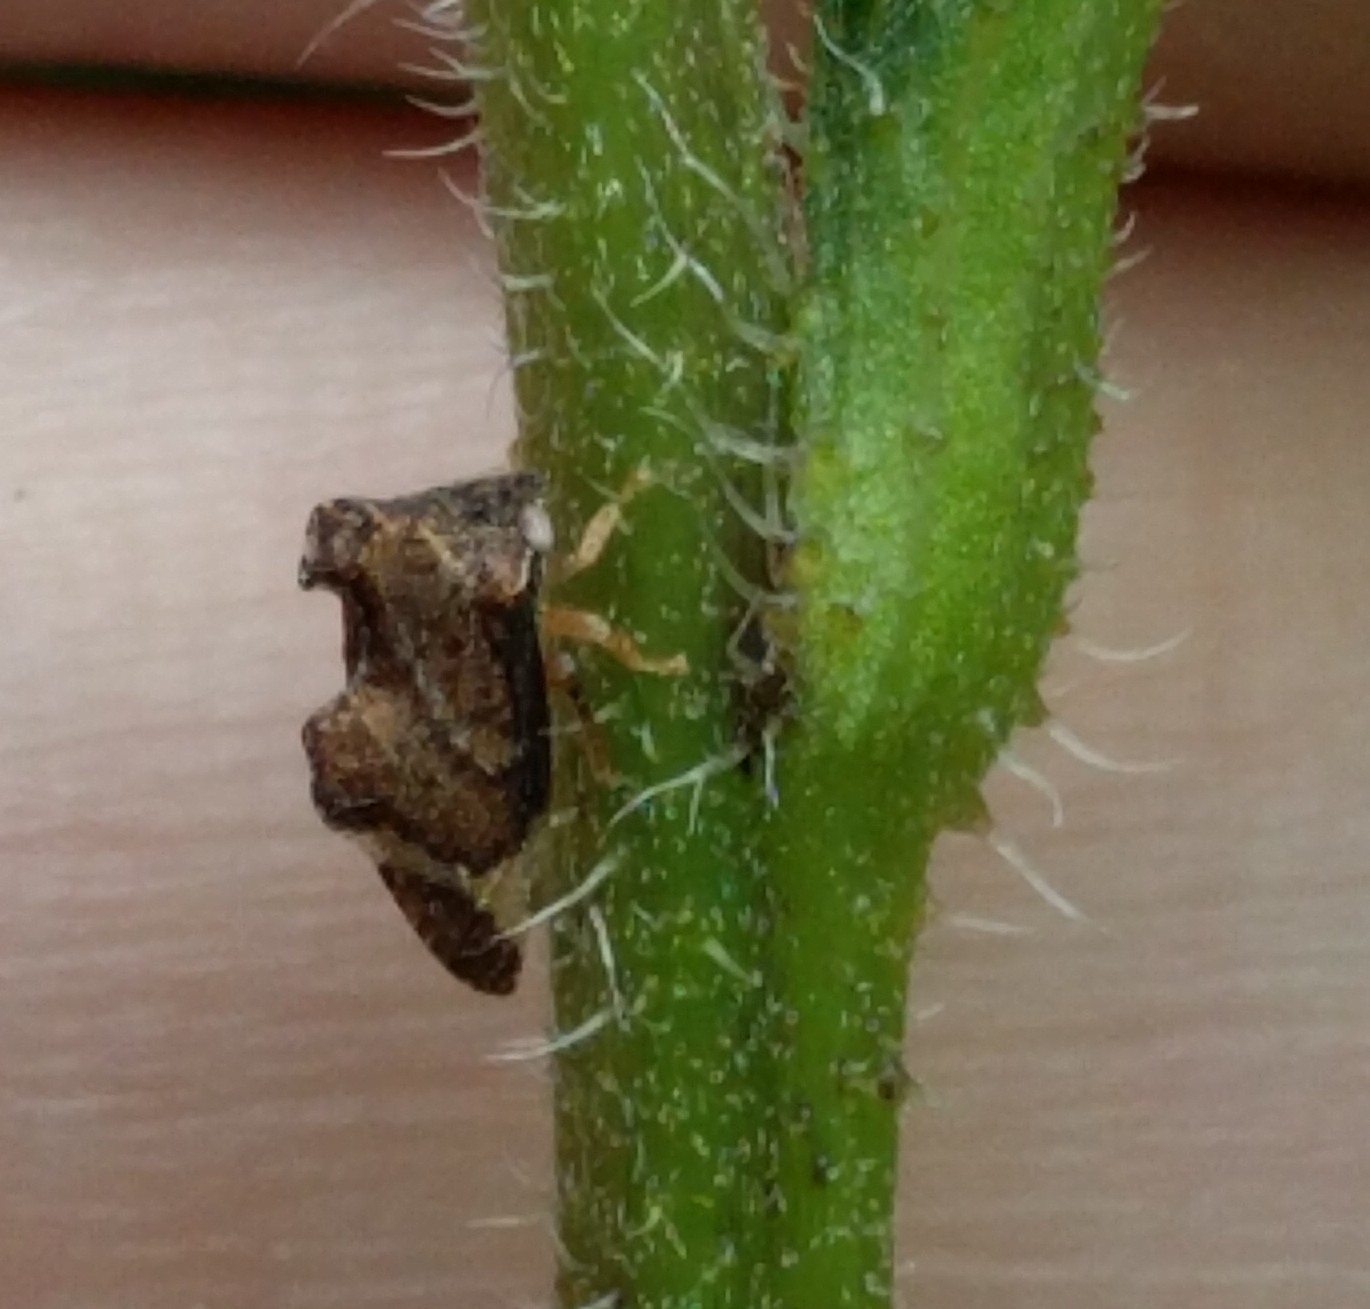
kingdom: Animalia
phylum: Arthropoda
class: Insecta
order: Hemiptera
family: Membracidae
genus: Entylia
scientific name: Entylia carinata
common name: Keeled treehopper
